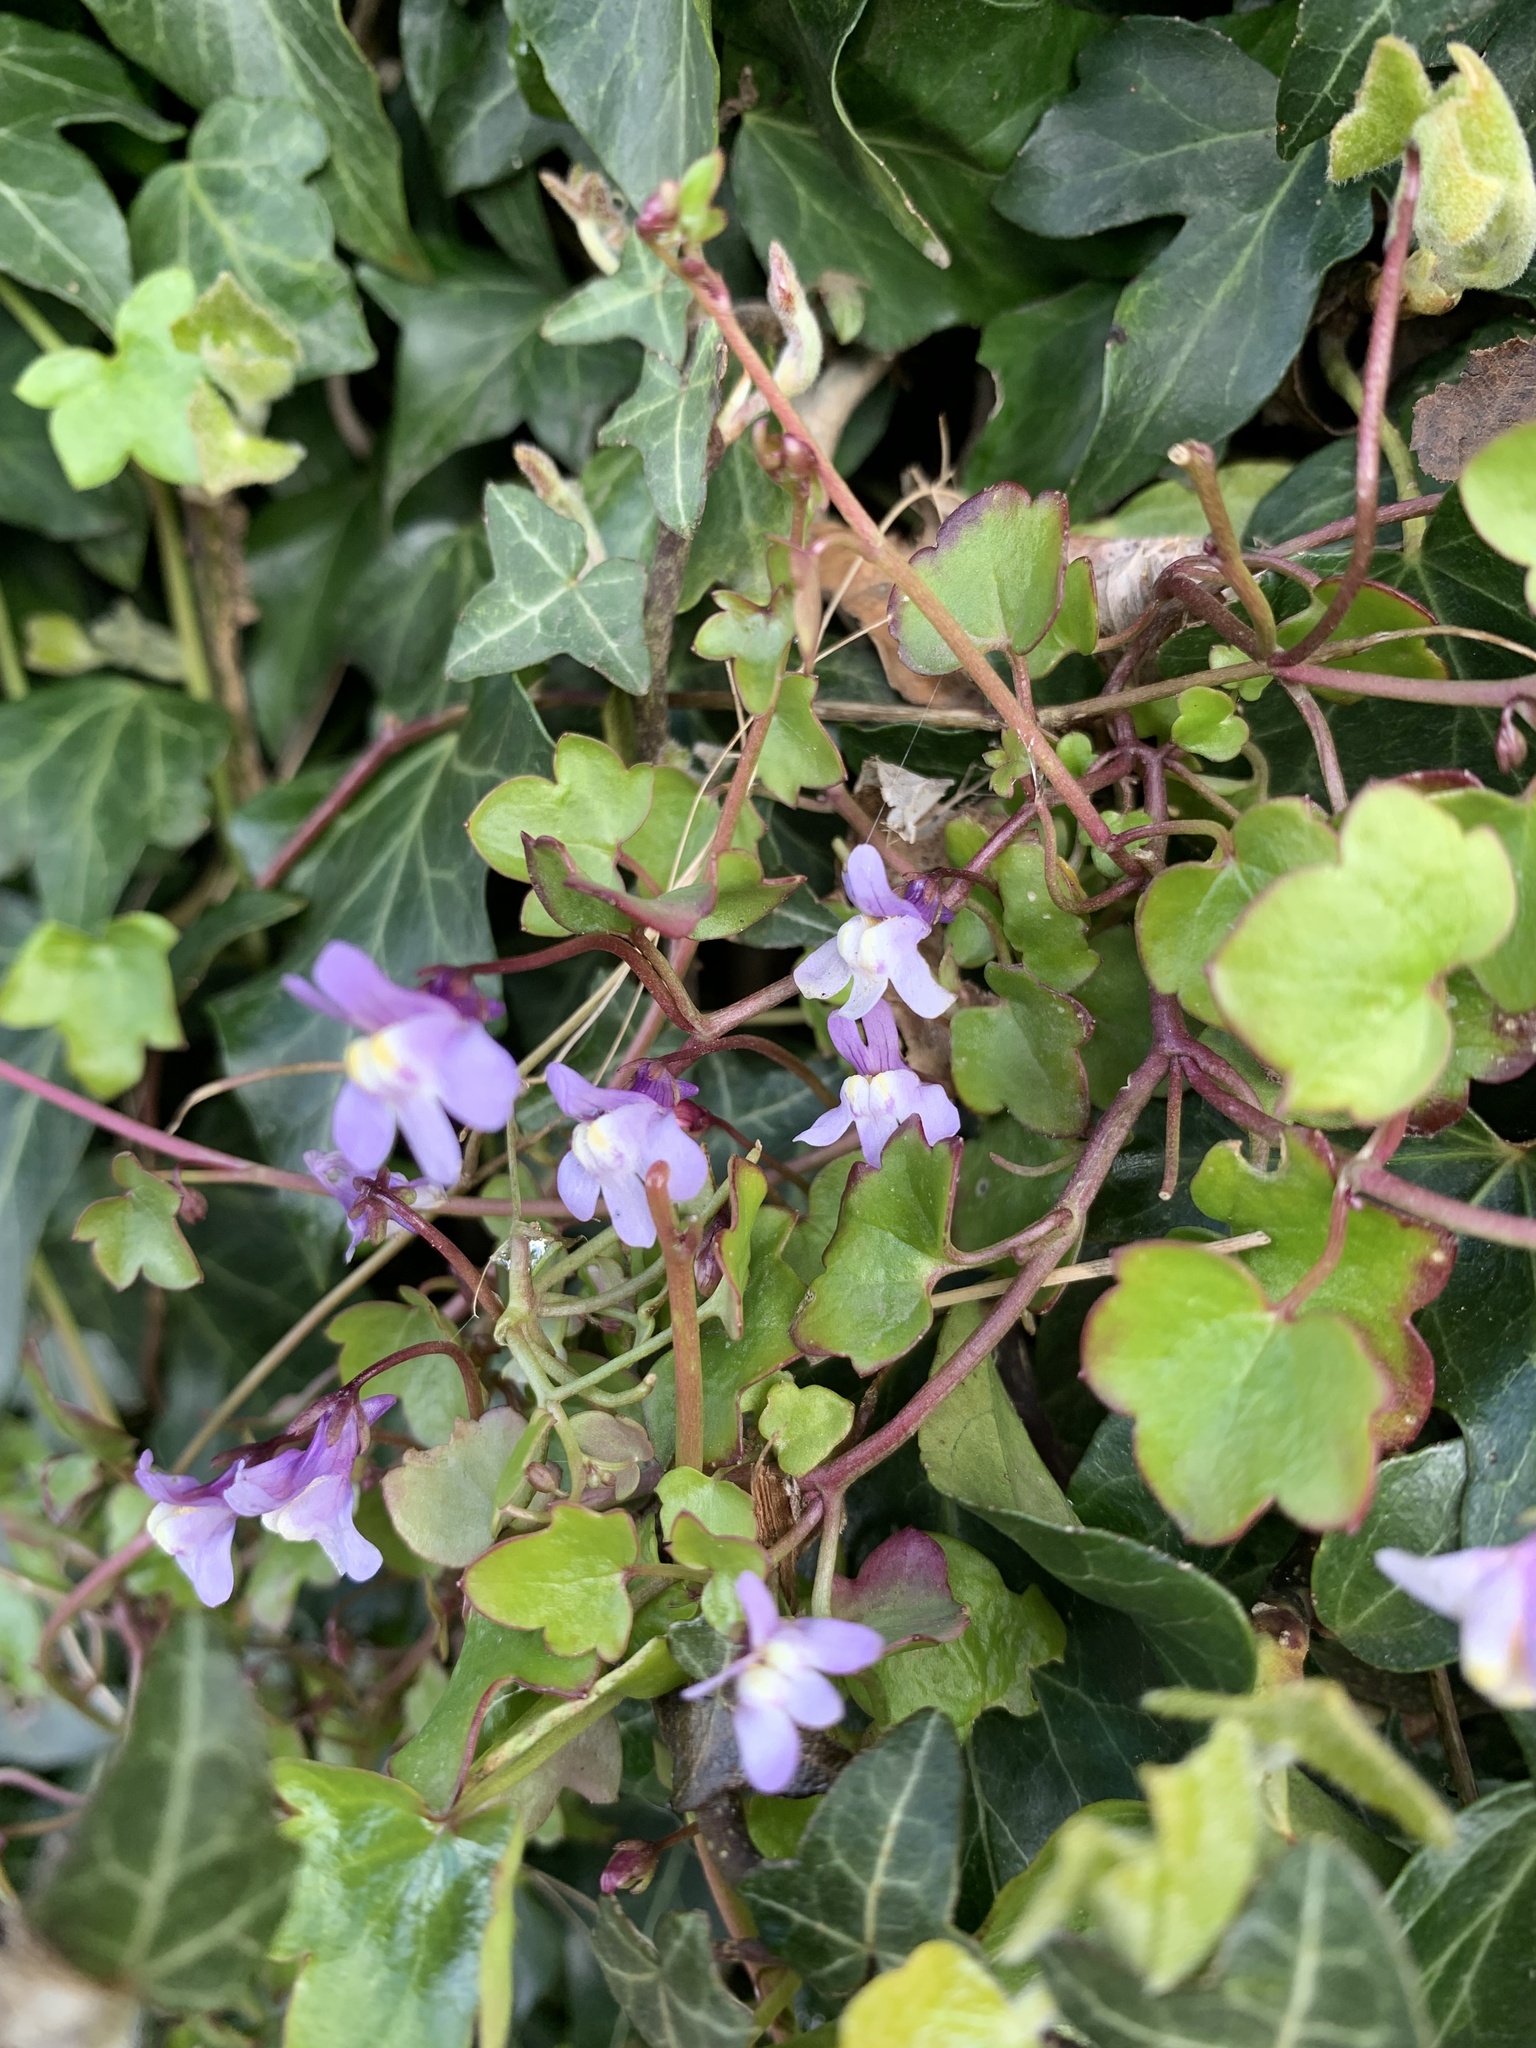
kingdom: Plantae
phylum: Tracheophyta
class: Magnoliopsida
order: Lamiales
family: Plantaginaceae
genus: Cymbalaria
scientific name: Cymbalaria muralis
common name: Ivy-leaved toadflax
